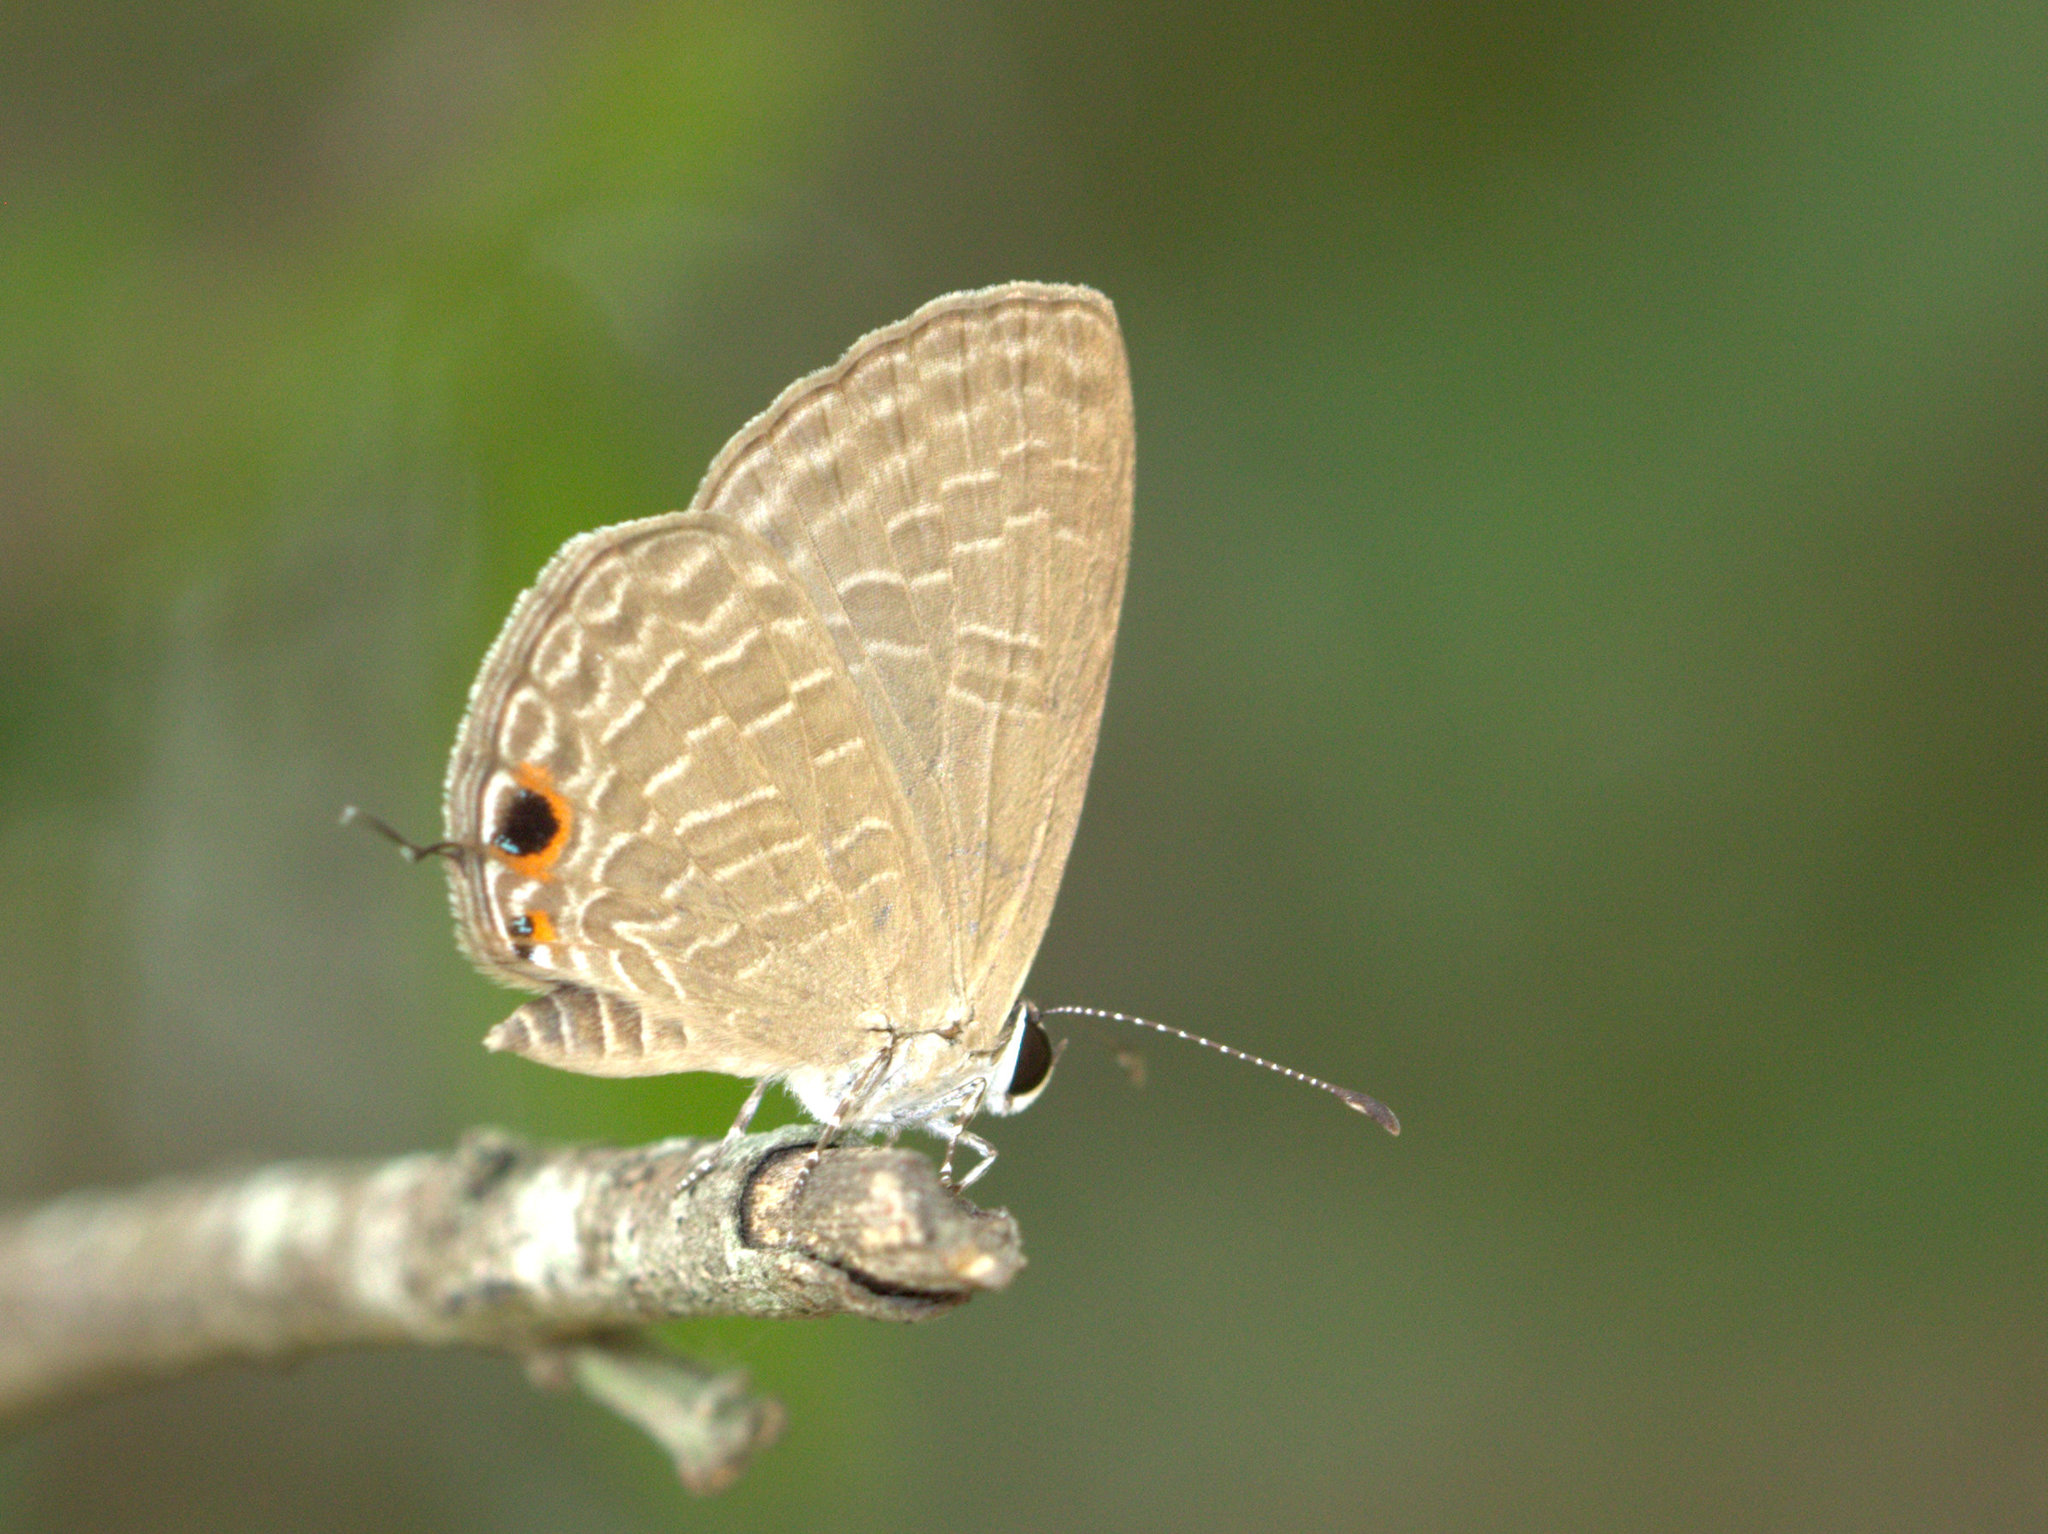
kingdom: Animalia
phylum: Arthropoda
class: Insecta
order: Lepidoptera
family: Lycaenidae
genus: Jamides
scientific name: Jamides bochus
